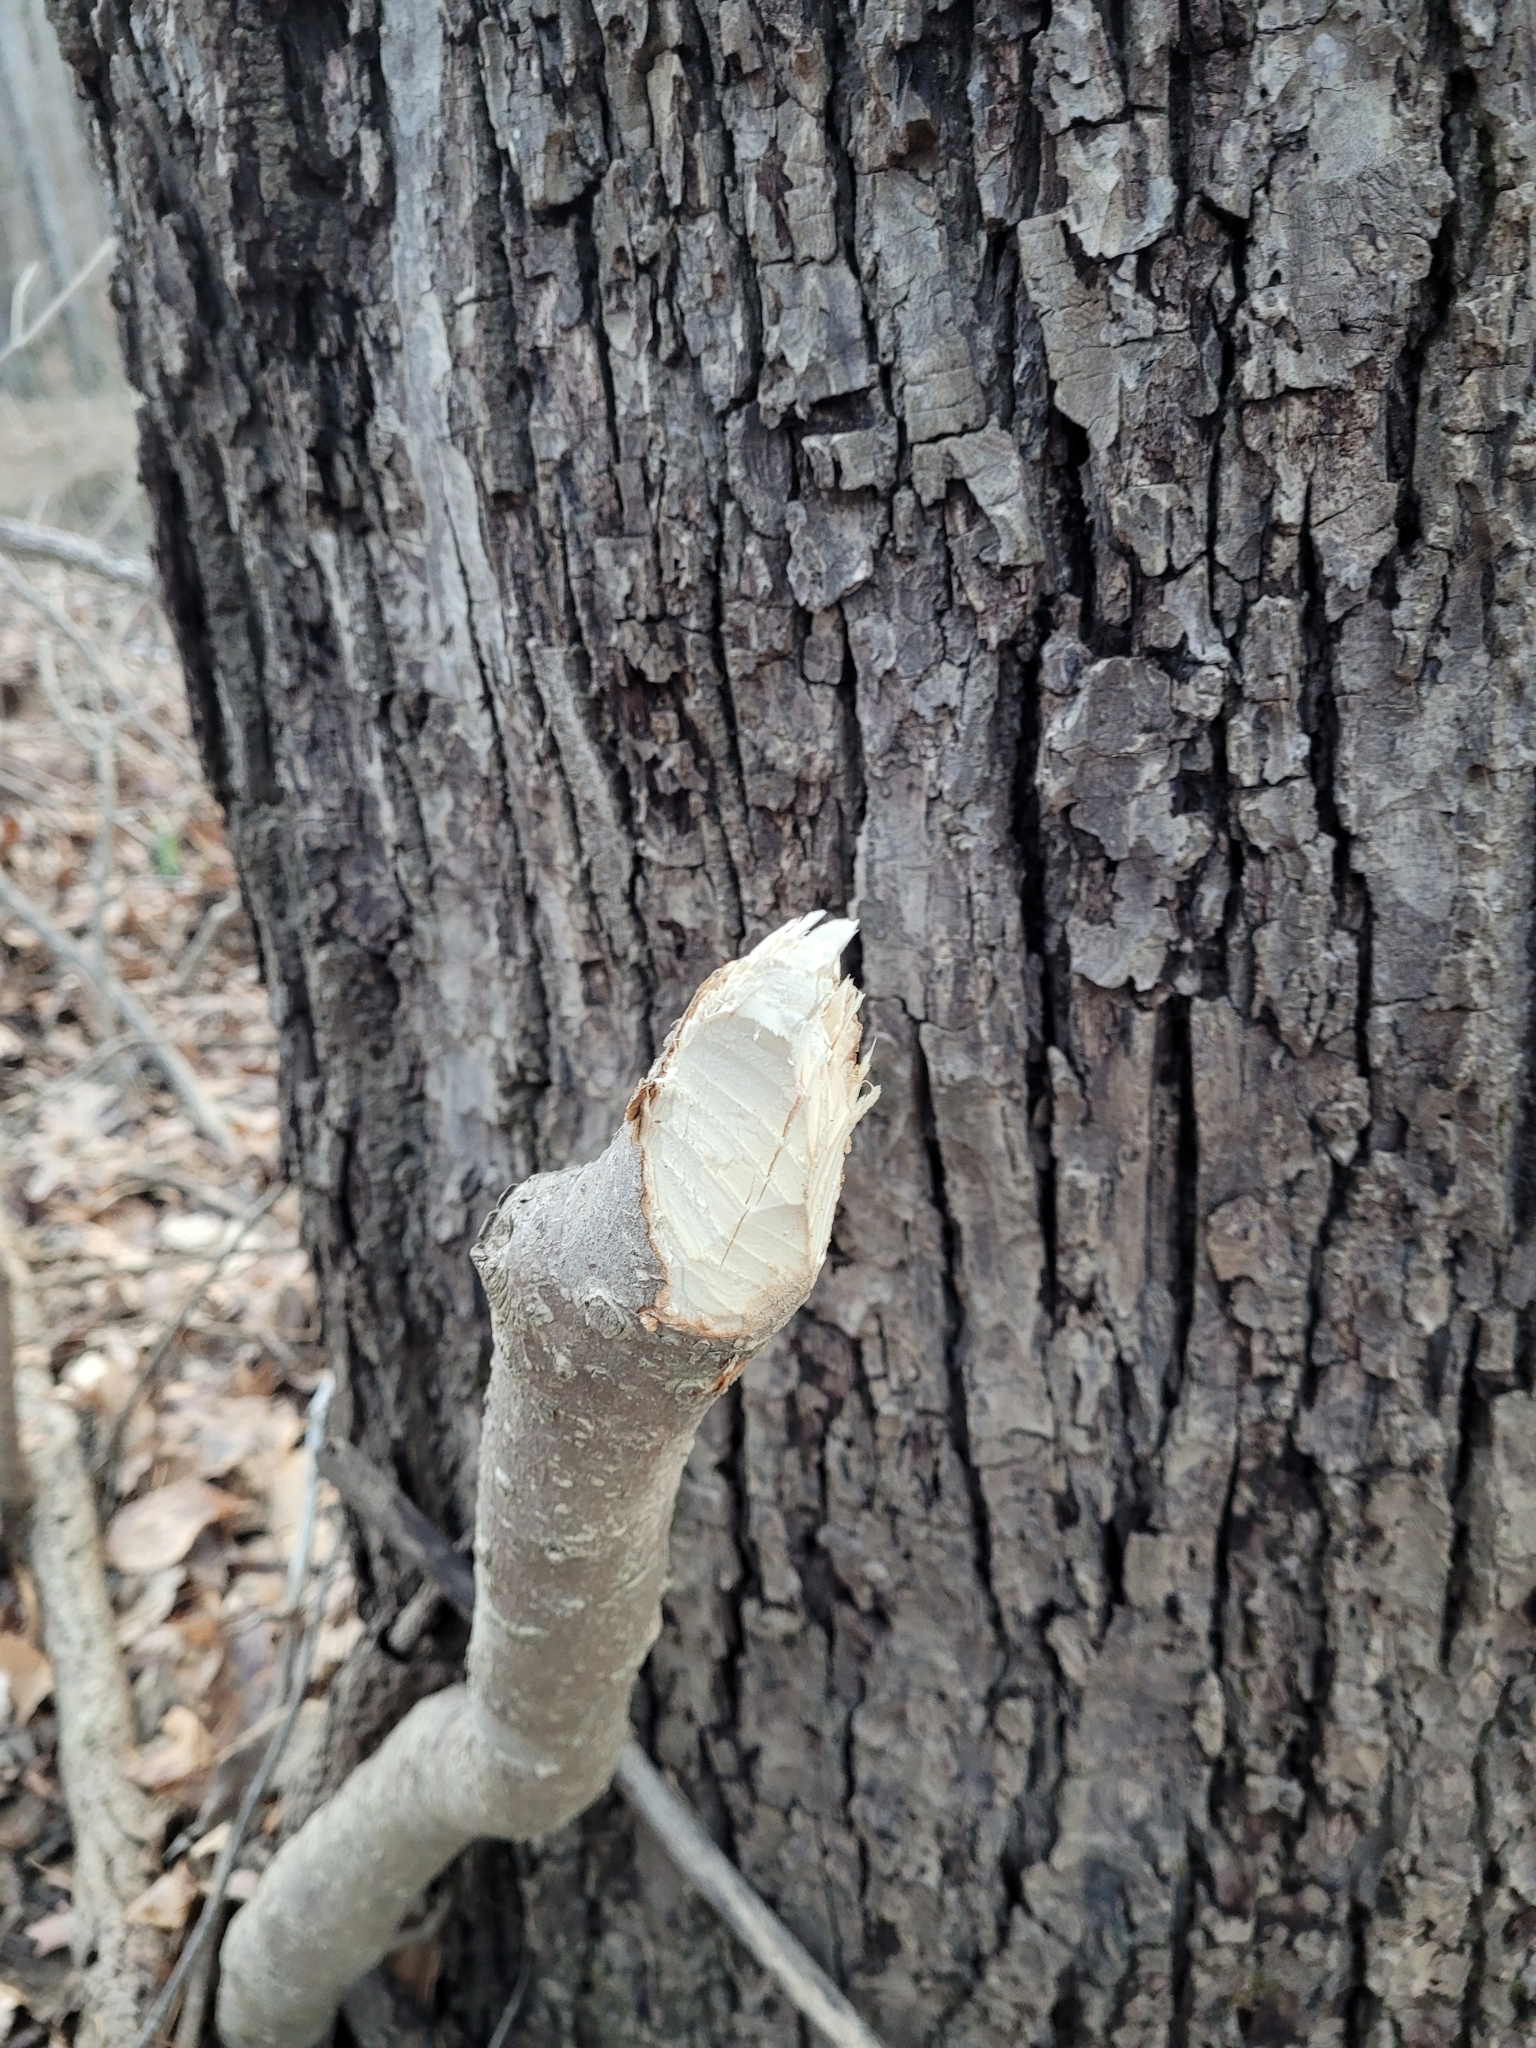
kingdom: Animalia
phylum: Chordata
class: Mammalia
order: Rodentia
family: Castoridae
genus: Castor
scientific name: Castor canadensis
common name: American beaver
